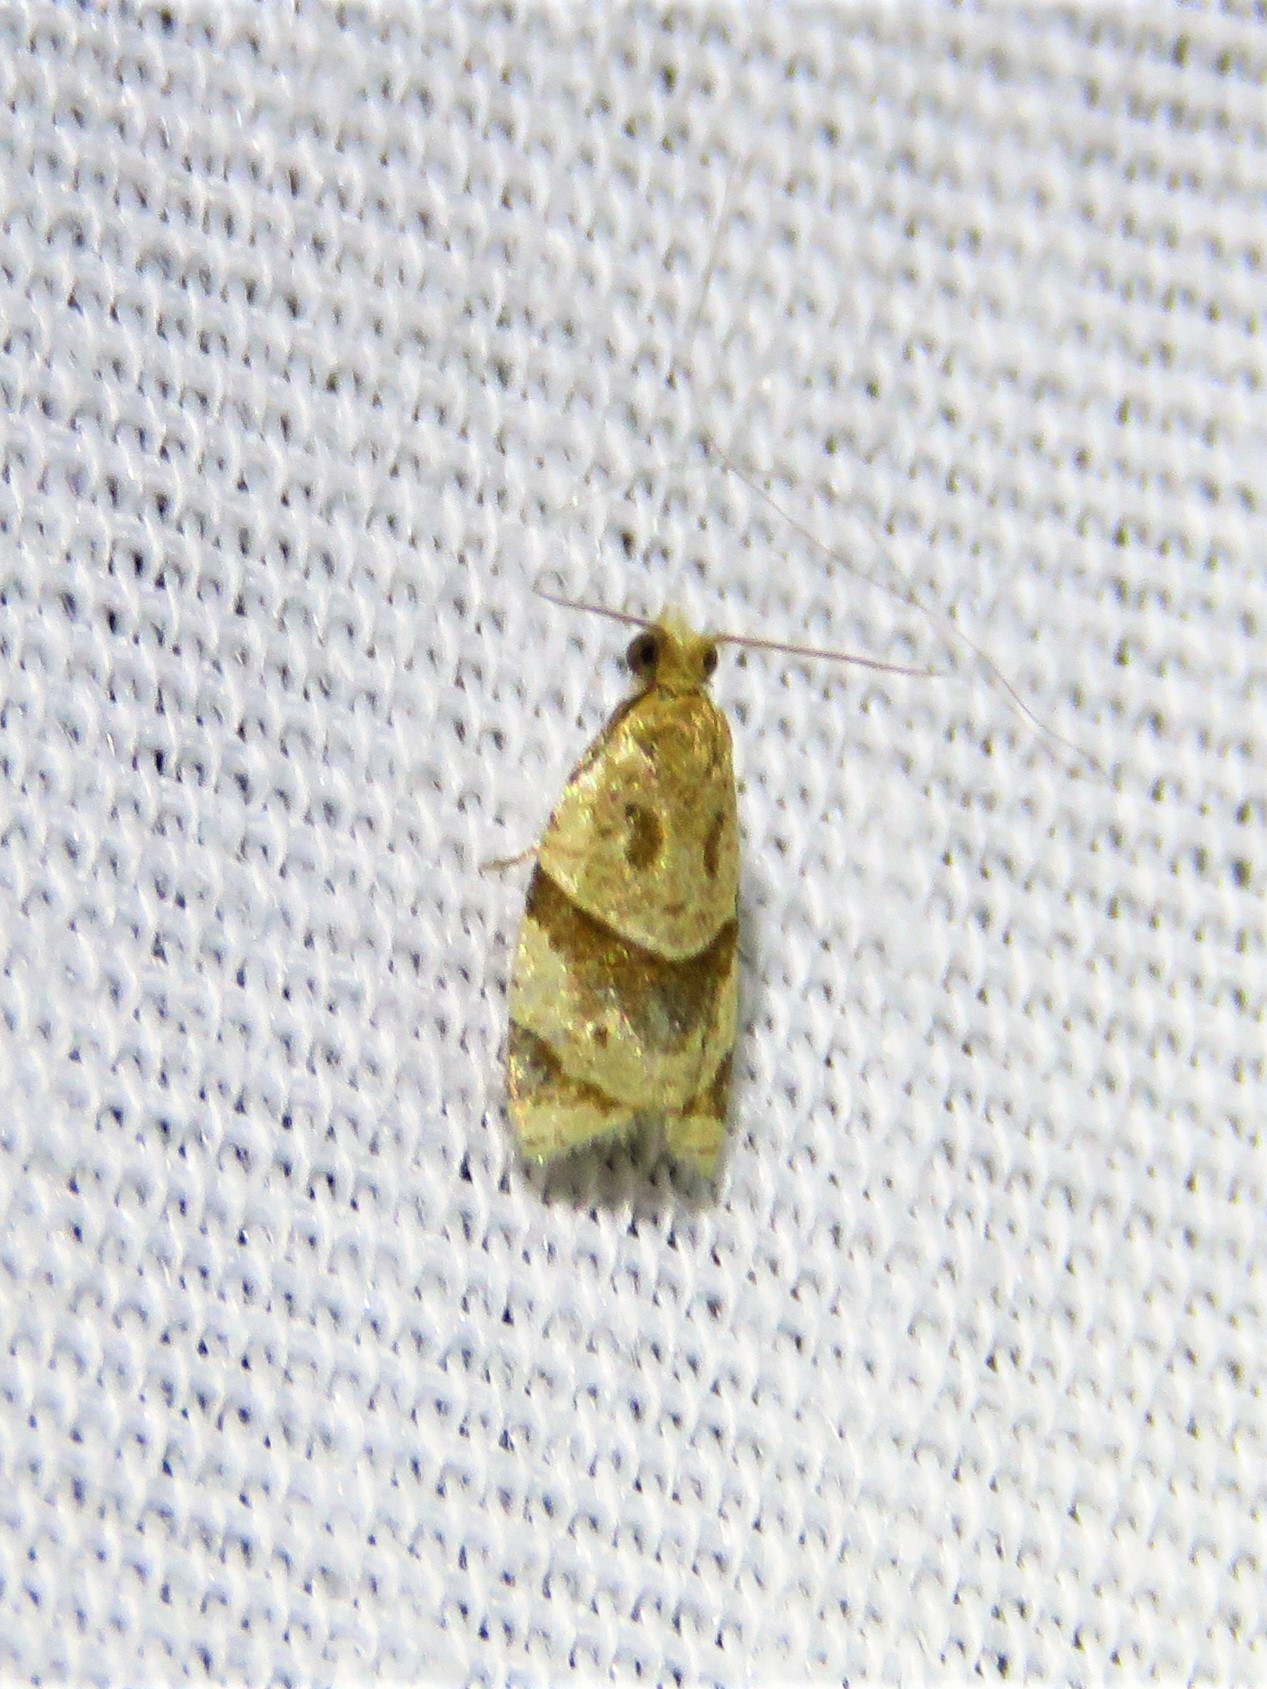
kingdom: Animalia
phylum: Arthropoda
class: Insecta
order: Lepidoptera
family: Tortricidae
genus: Clepsis
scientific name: Clepsis peritana
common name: Garden tortrix
